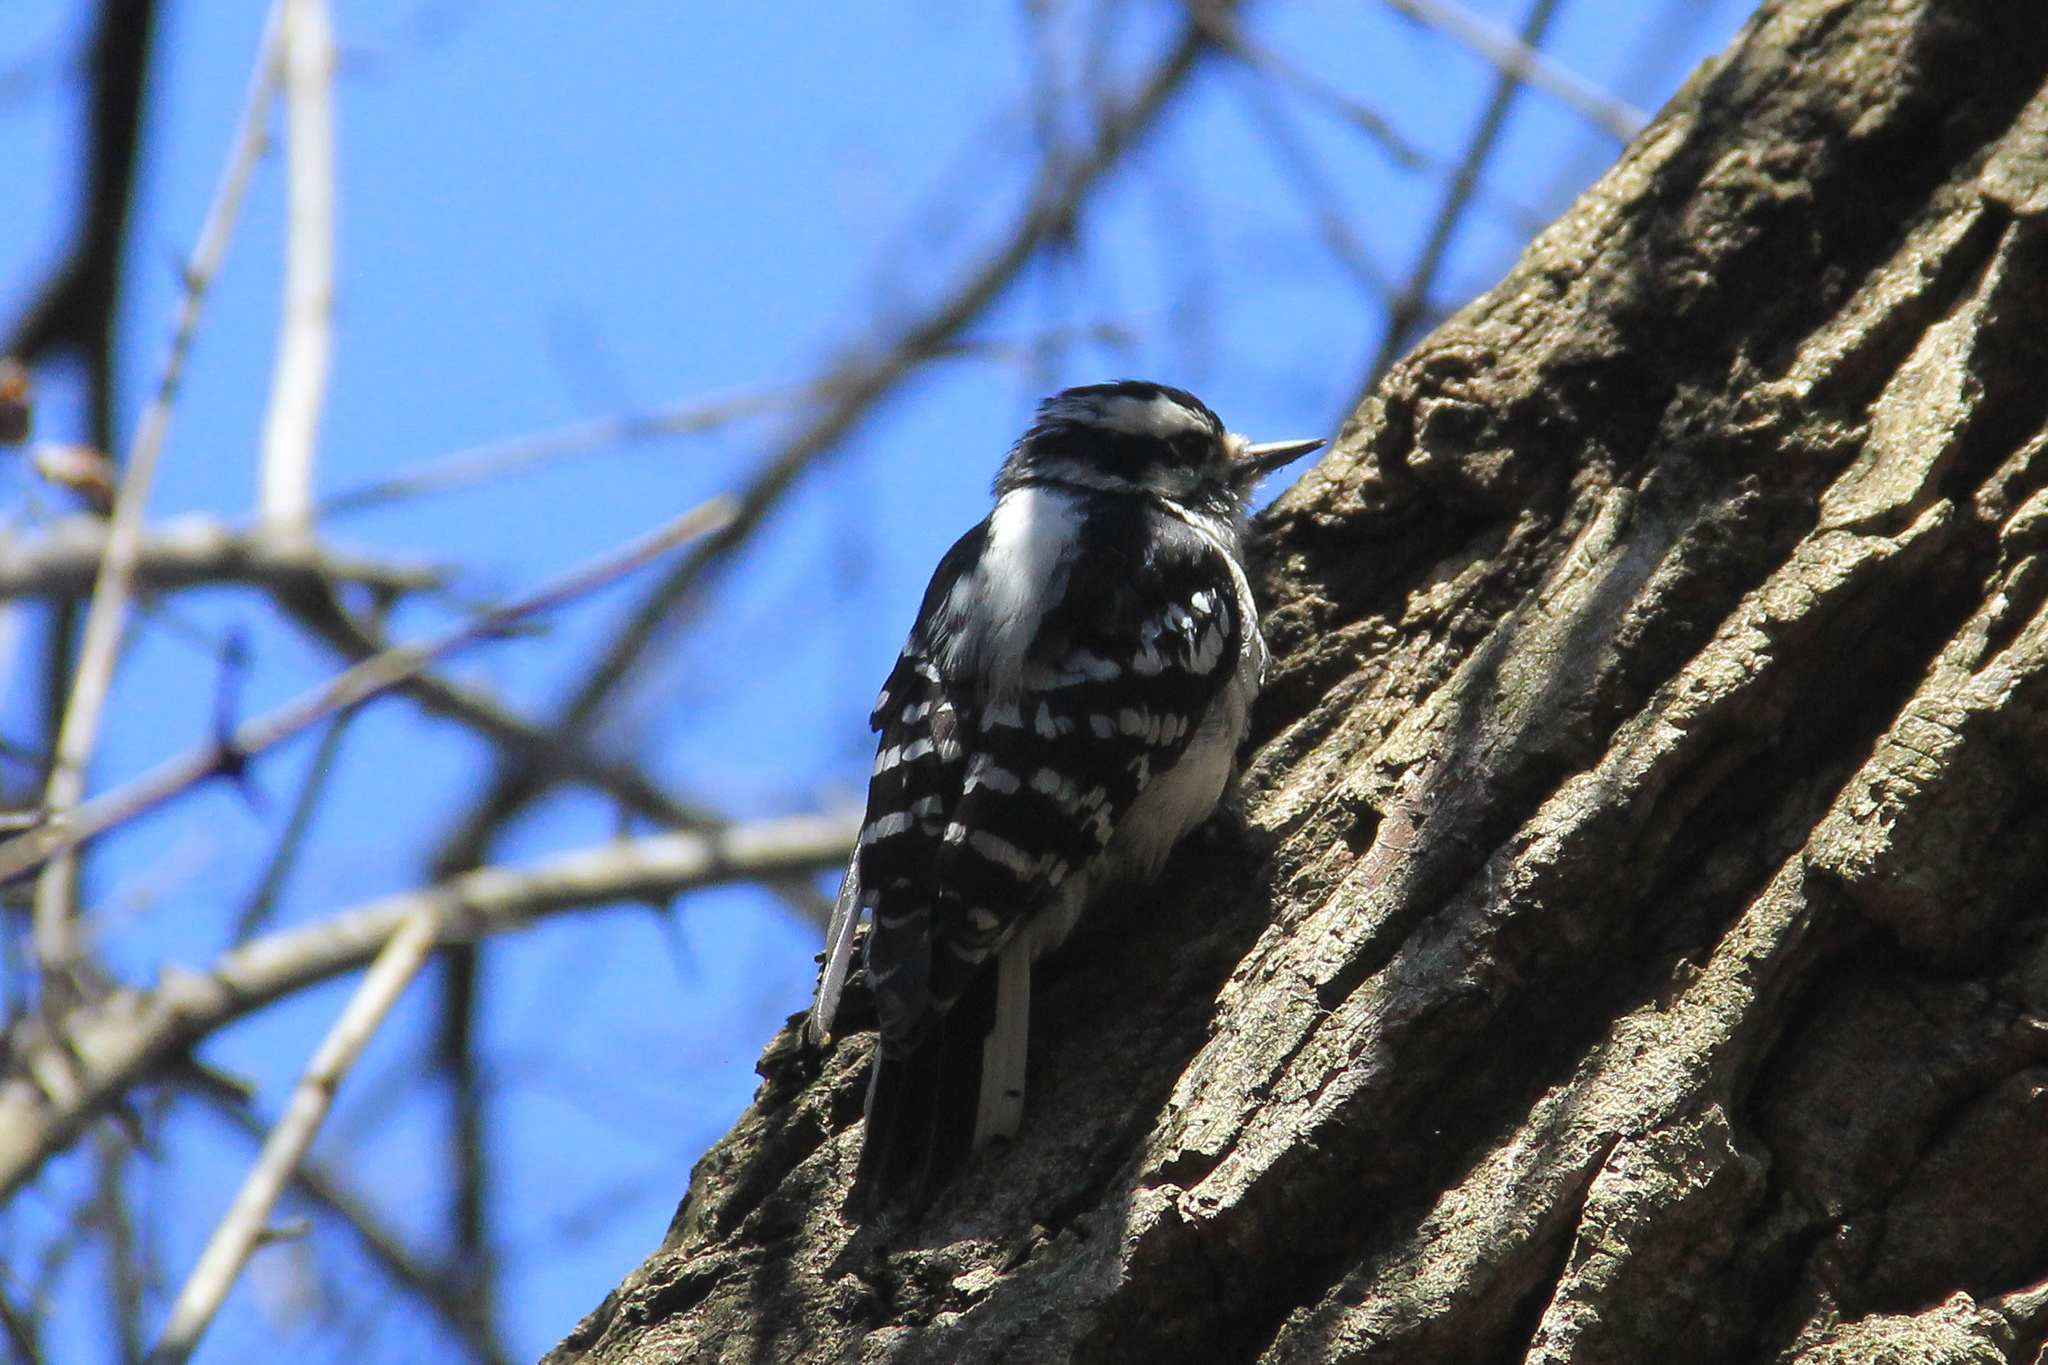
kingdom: Animalia
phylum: Chordata
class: Aves
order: Piciformes
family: Picidae
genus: Dryobates
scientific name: Dryobates pubescens
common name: Downy woodpecker
